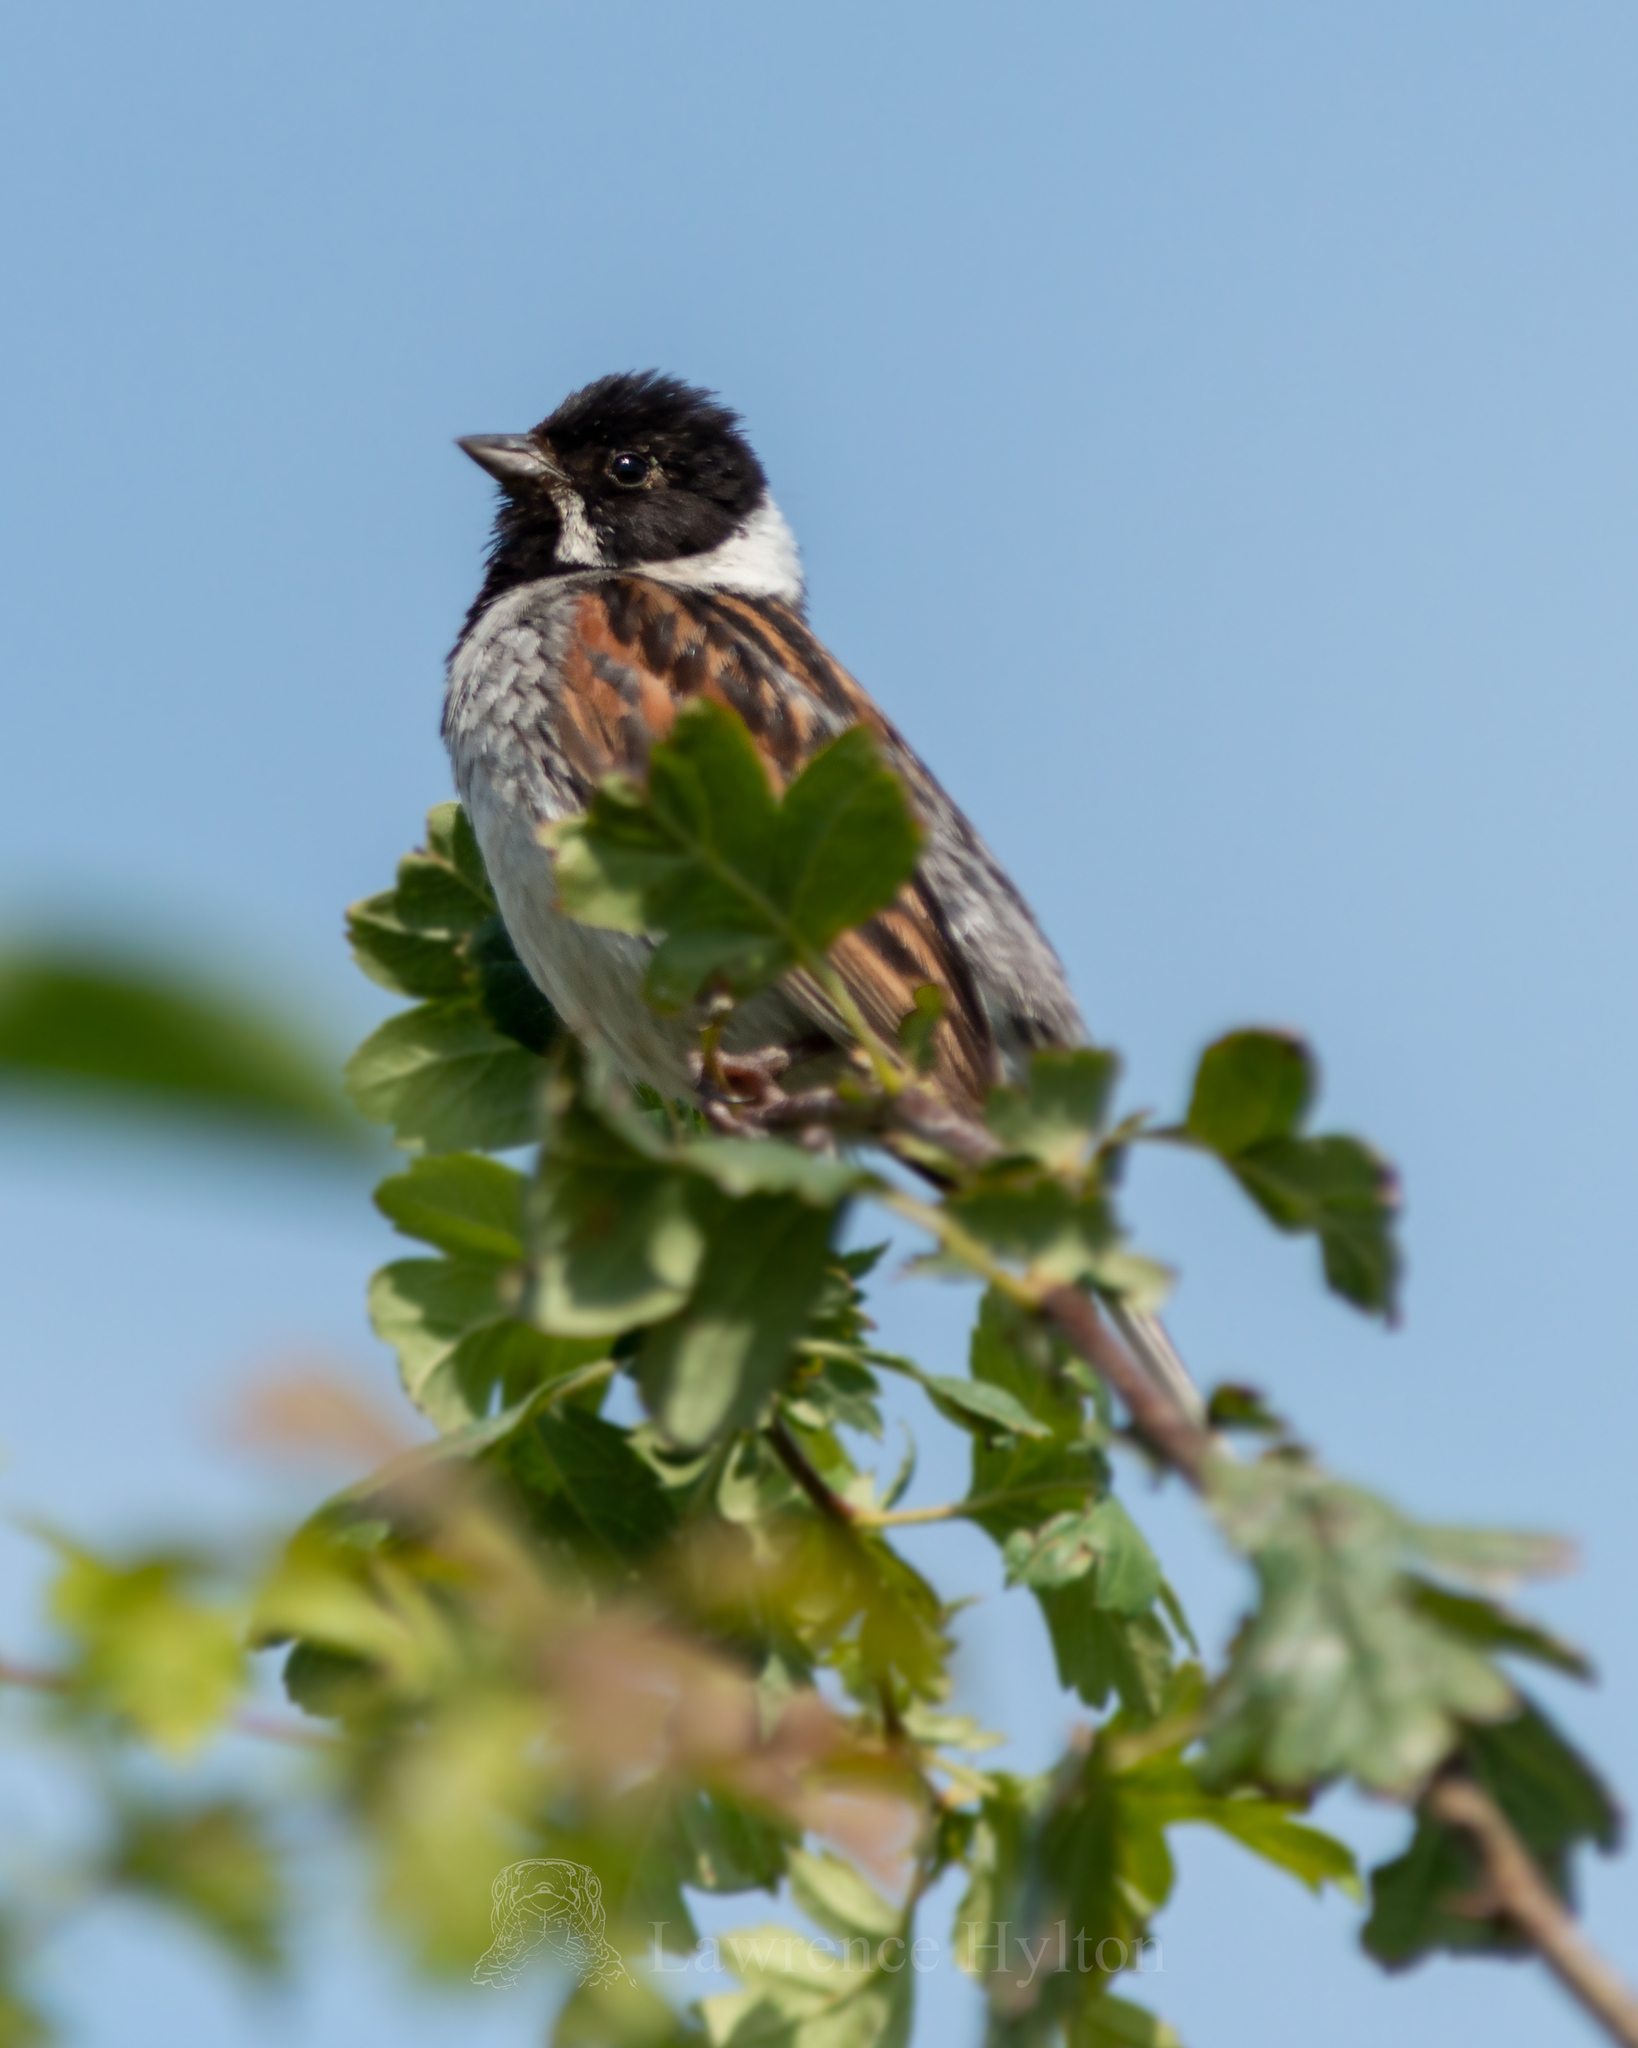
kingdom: Animalia
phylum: Chordata
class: Aves
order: Passeriformes
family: Emberizidae
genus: Emberiza
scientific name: Emberiza schoeniclus
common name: Reed bunting
